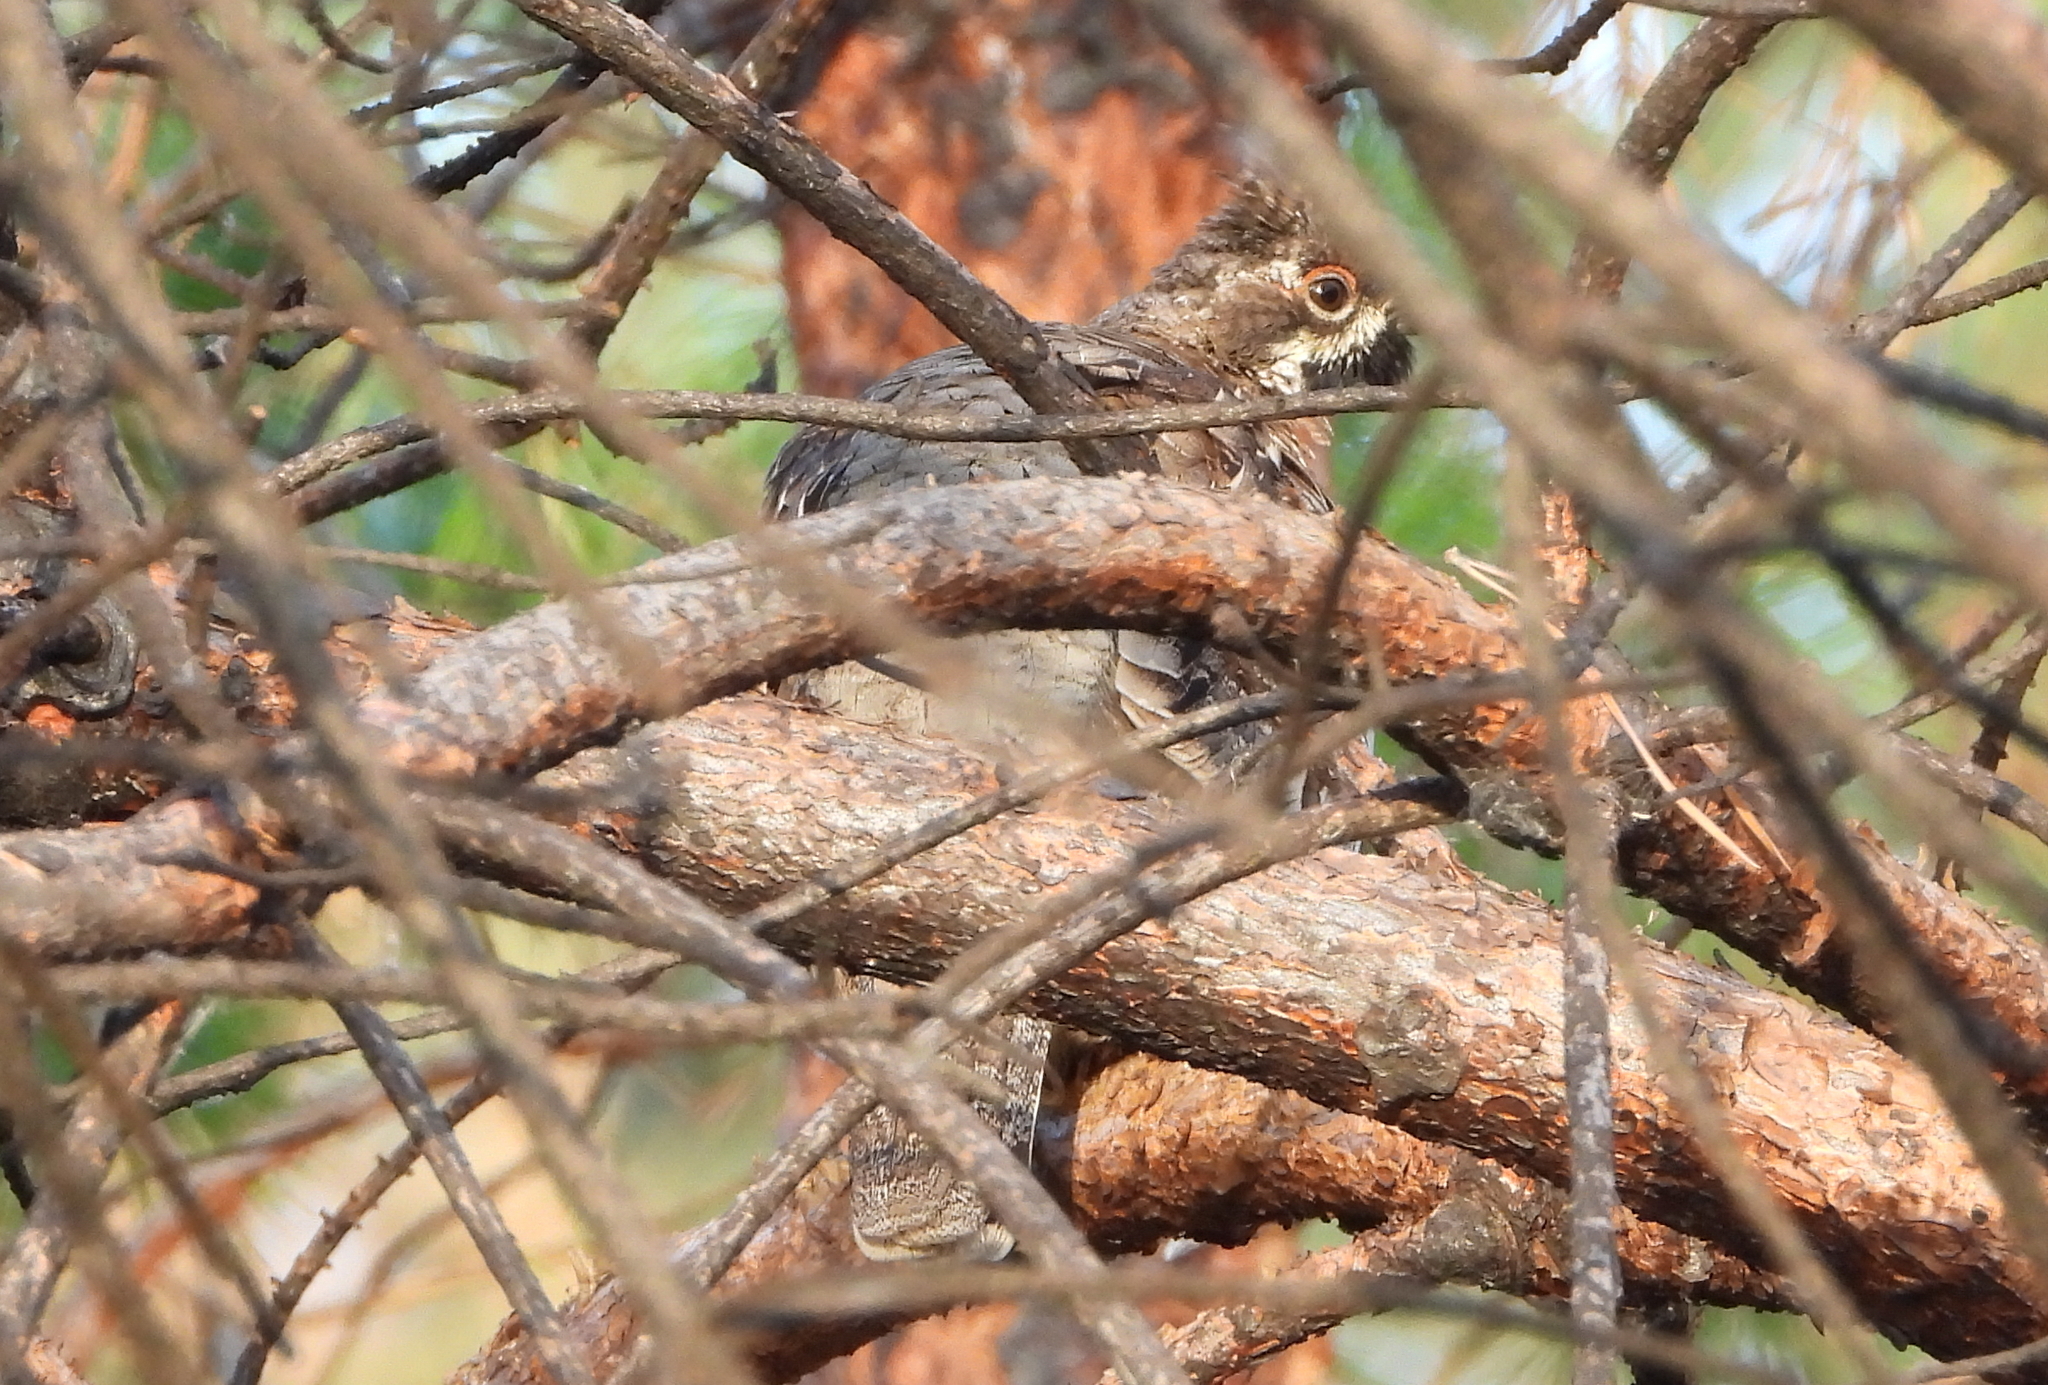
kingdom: Animalia
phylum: Chordata
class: Aves
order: Galliformes
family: Phasianidae
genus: Tetrastes
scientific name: Tetrastes bonasia
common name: Hazel grouse
